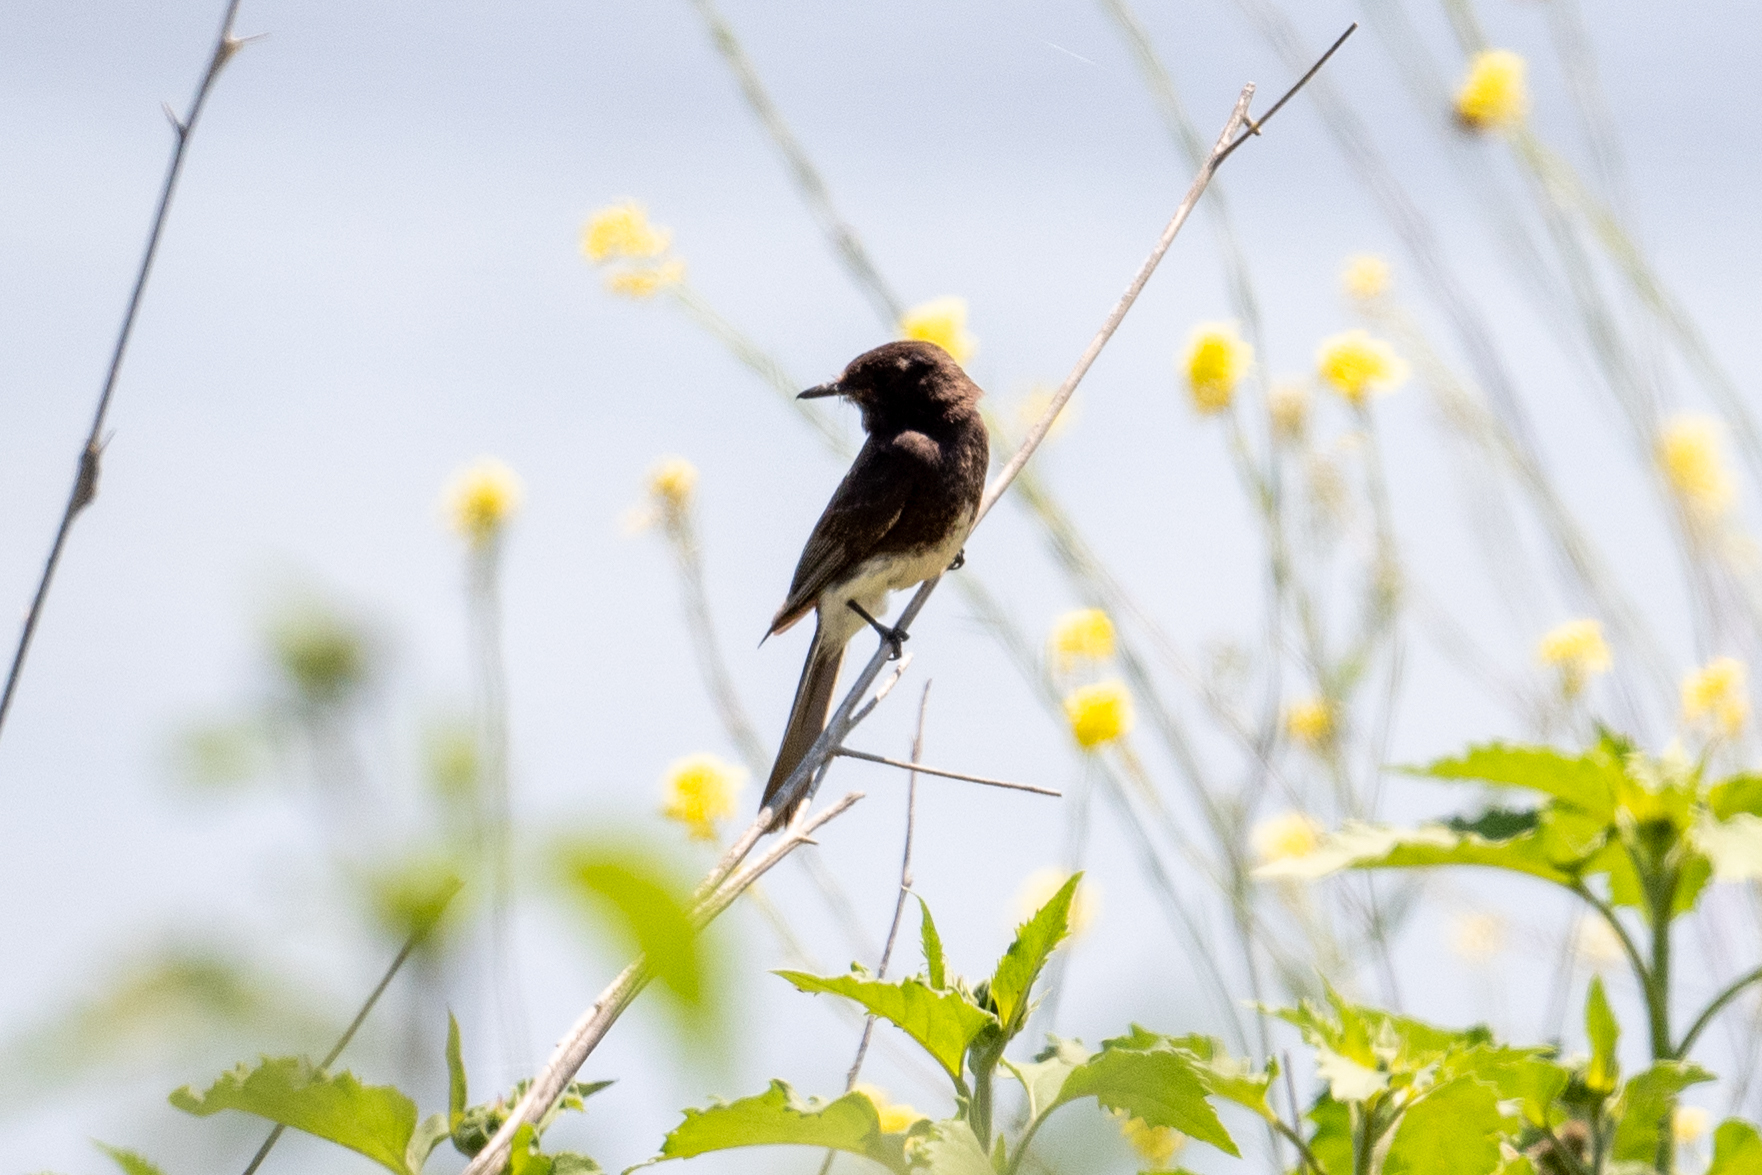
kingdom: Animalia
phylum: Chordata
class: Aves
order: Passeriformes
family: Tyrannidae
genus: Sayornis
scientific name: Sayornis nigricans
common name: Black phoebe
